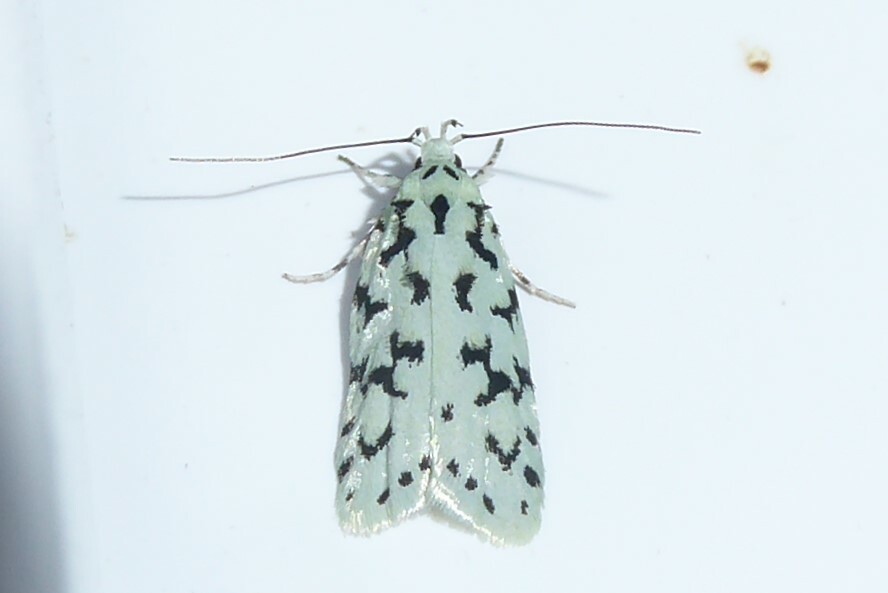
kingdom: Animalia
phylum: Arthropoda
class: Insecta
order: Lepidoptera
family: Oecophoridae
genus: Izatha
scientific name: Izatha huttoni
